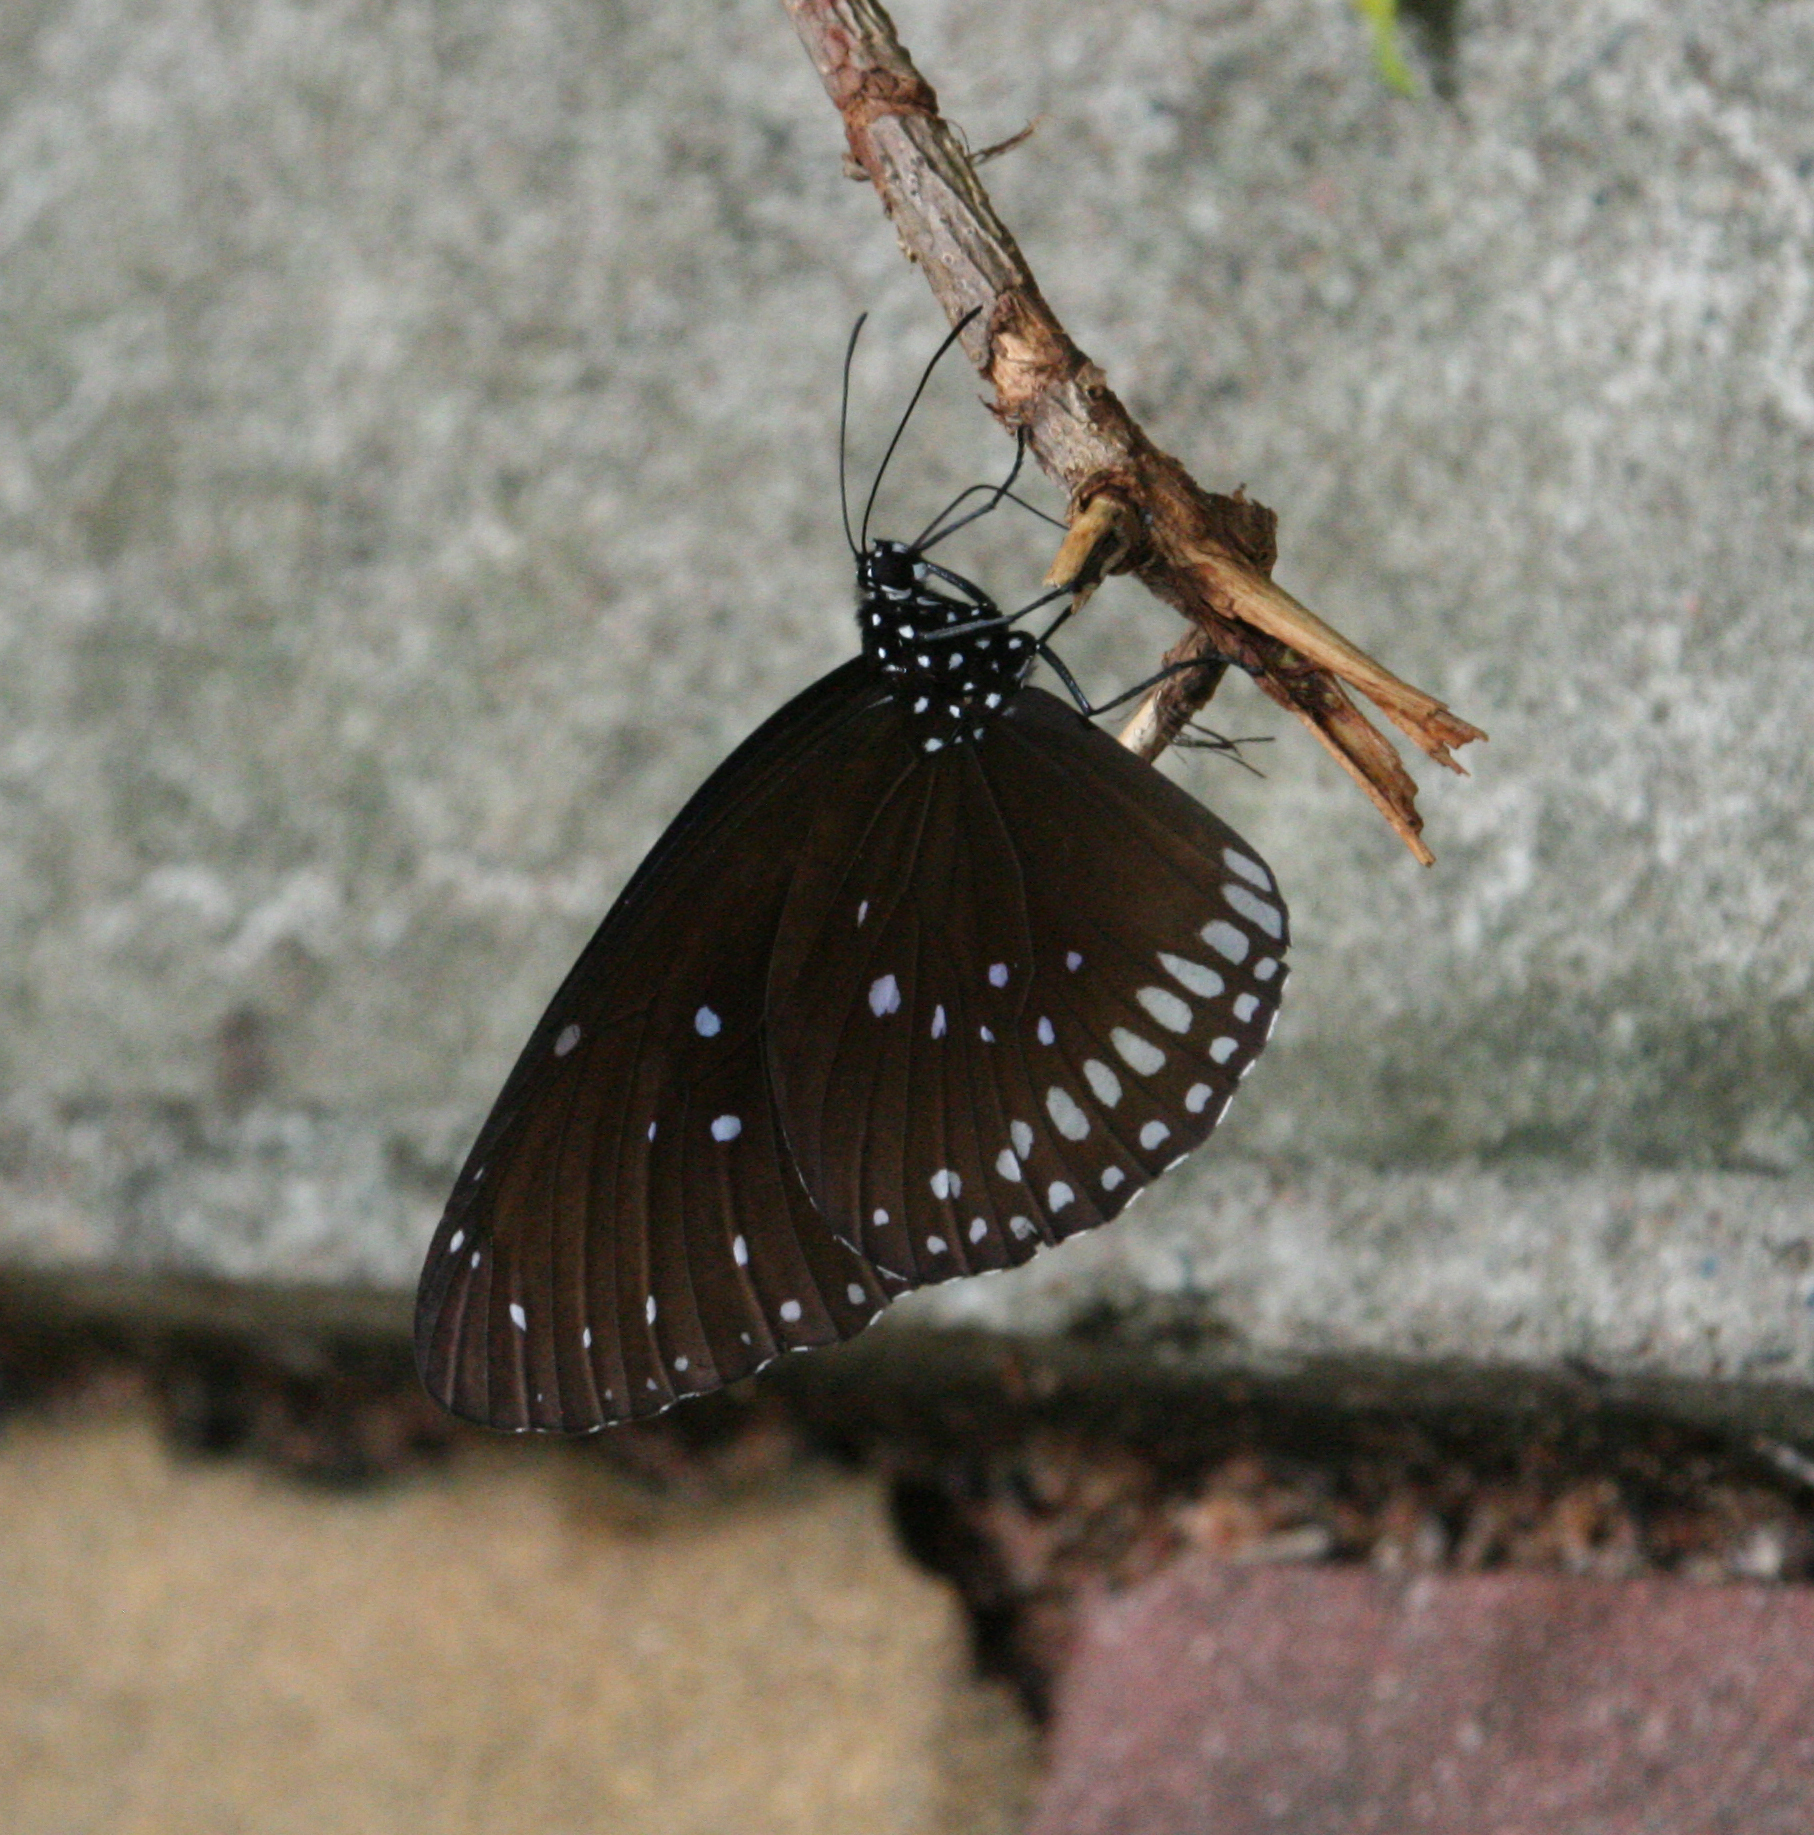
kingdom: Animalia
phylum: Arthropoda
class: Insecta
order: Lepidoptera
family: Nymphalidae
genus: Euploea
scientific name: Euploea core
